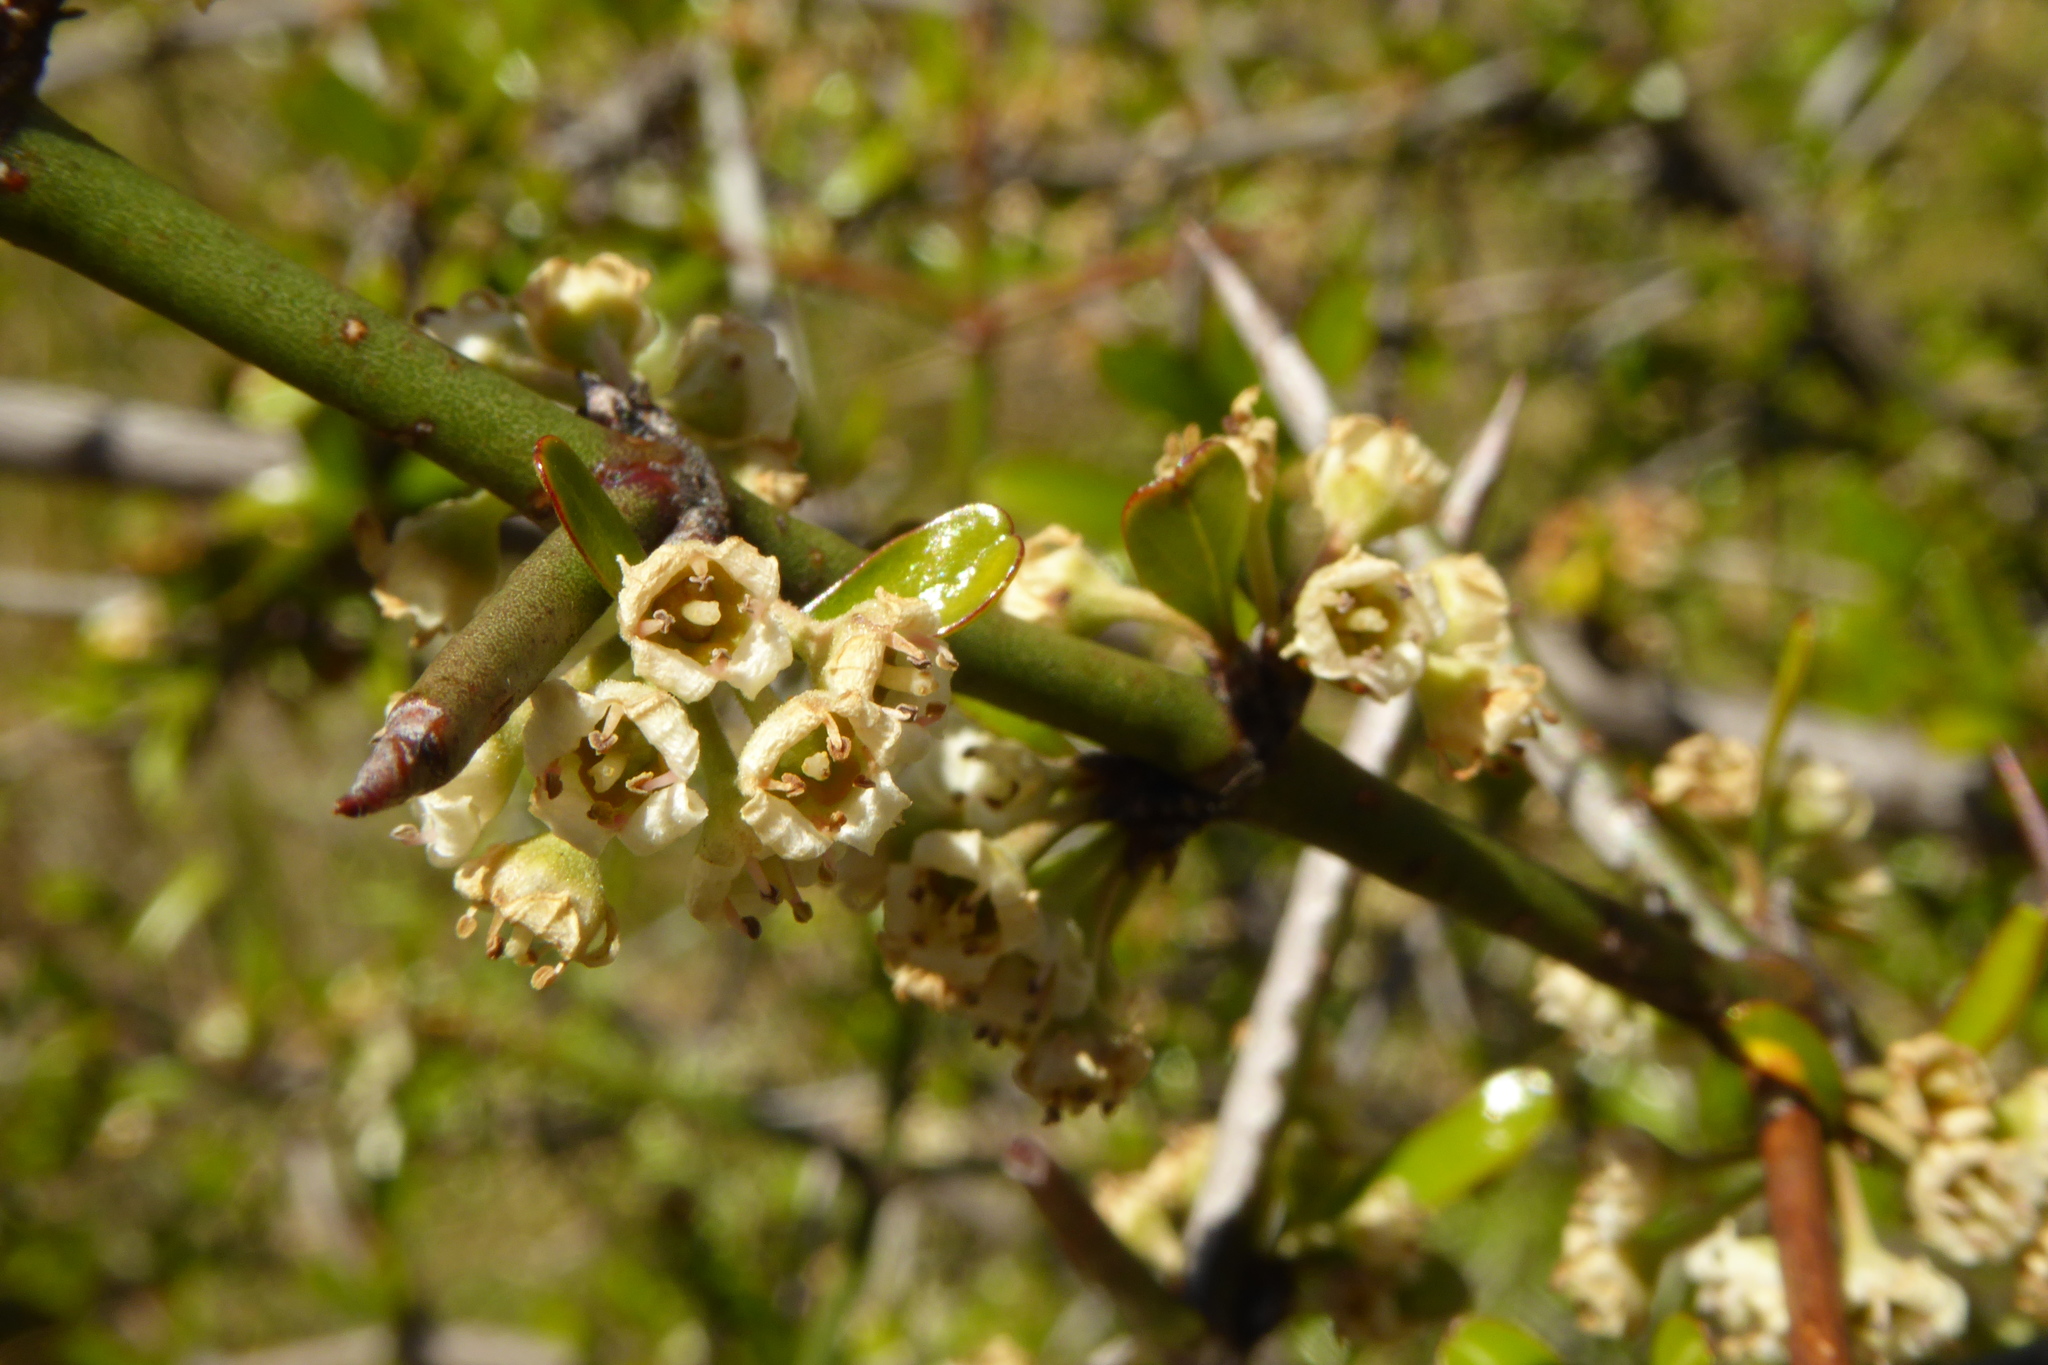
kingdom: Plantae
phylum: Tracheophyta
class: Magnoliopsida
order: Rosales
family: Rhamnaceae
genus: Discaria
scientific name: Discaria toumatou
